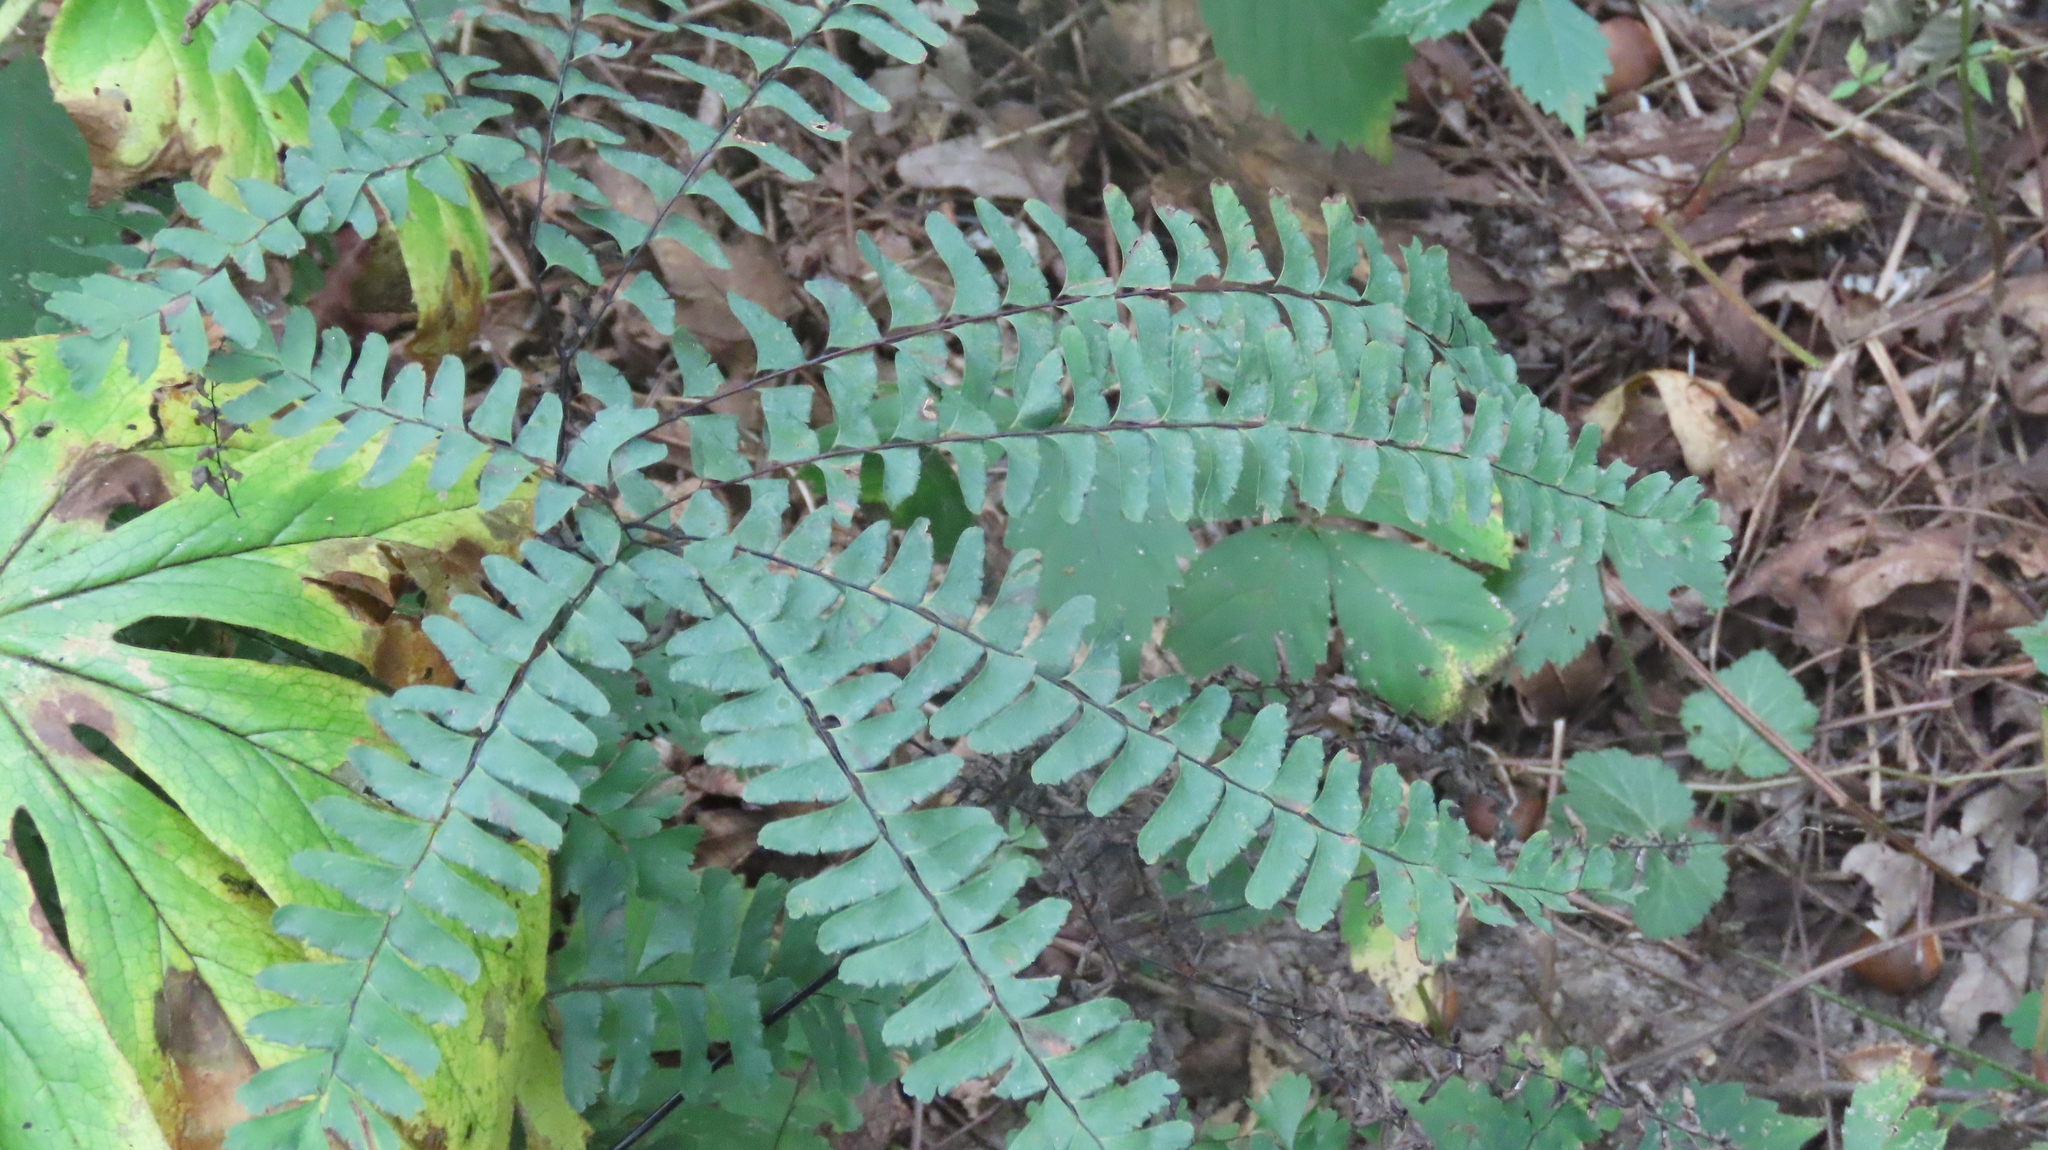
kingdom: Plantae
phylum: Tracheophyta
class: Polypodiopsida
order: Polypodiales
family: Pteridaceae
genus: Adiantum
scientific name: Adiantum pedatum
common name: Five-finger fern
